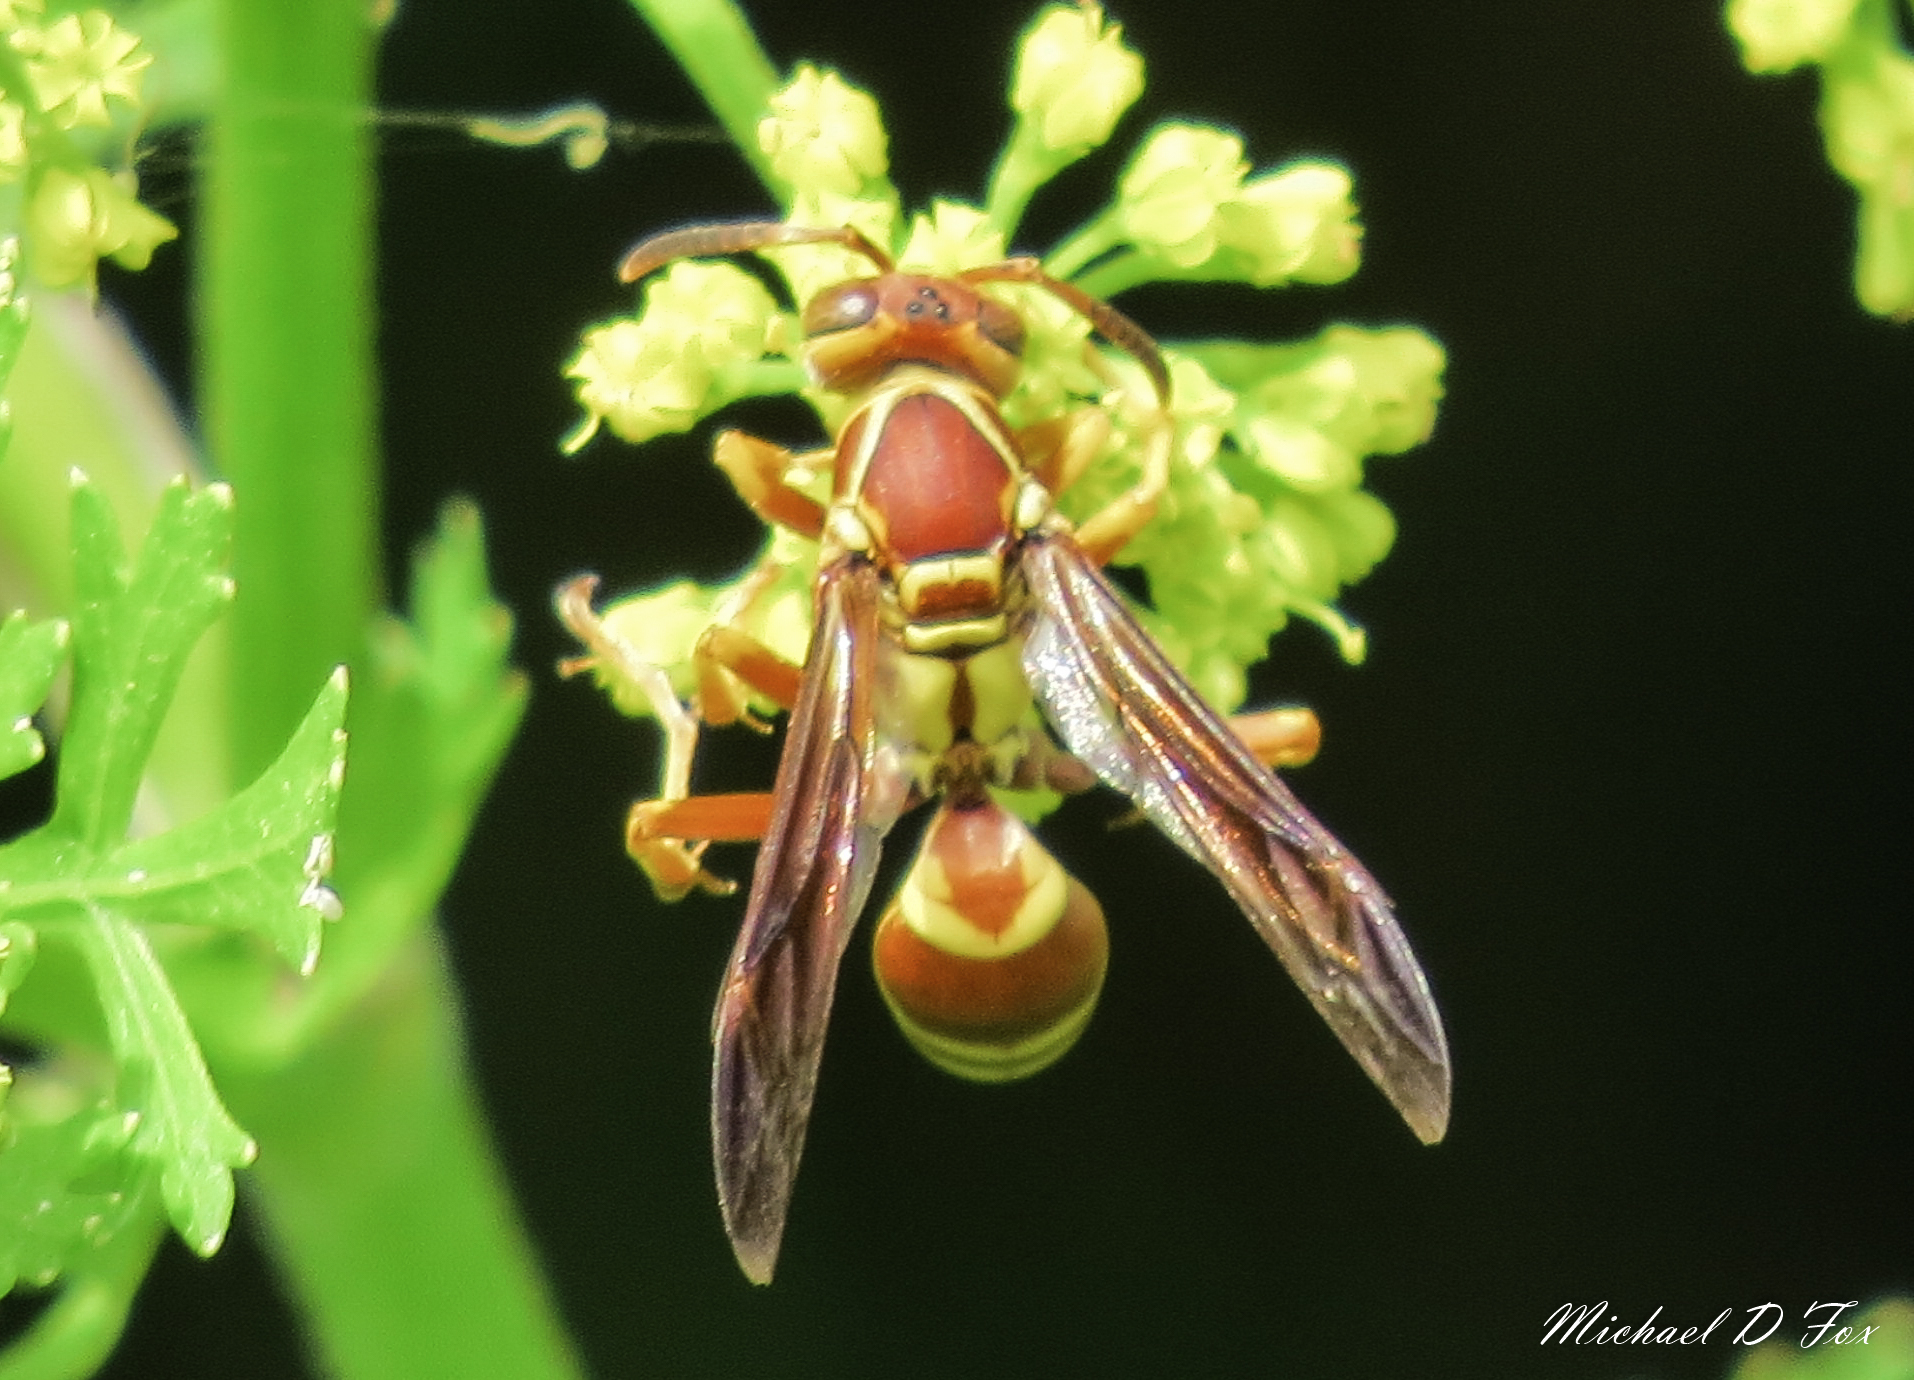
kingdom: Animalia
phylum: Arthropoda
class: Insecta
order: Hymenoptera
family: Eumenidae
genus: Polistes
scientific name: Polistes dorsalis
